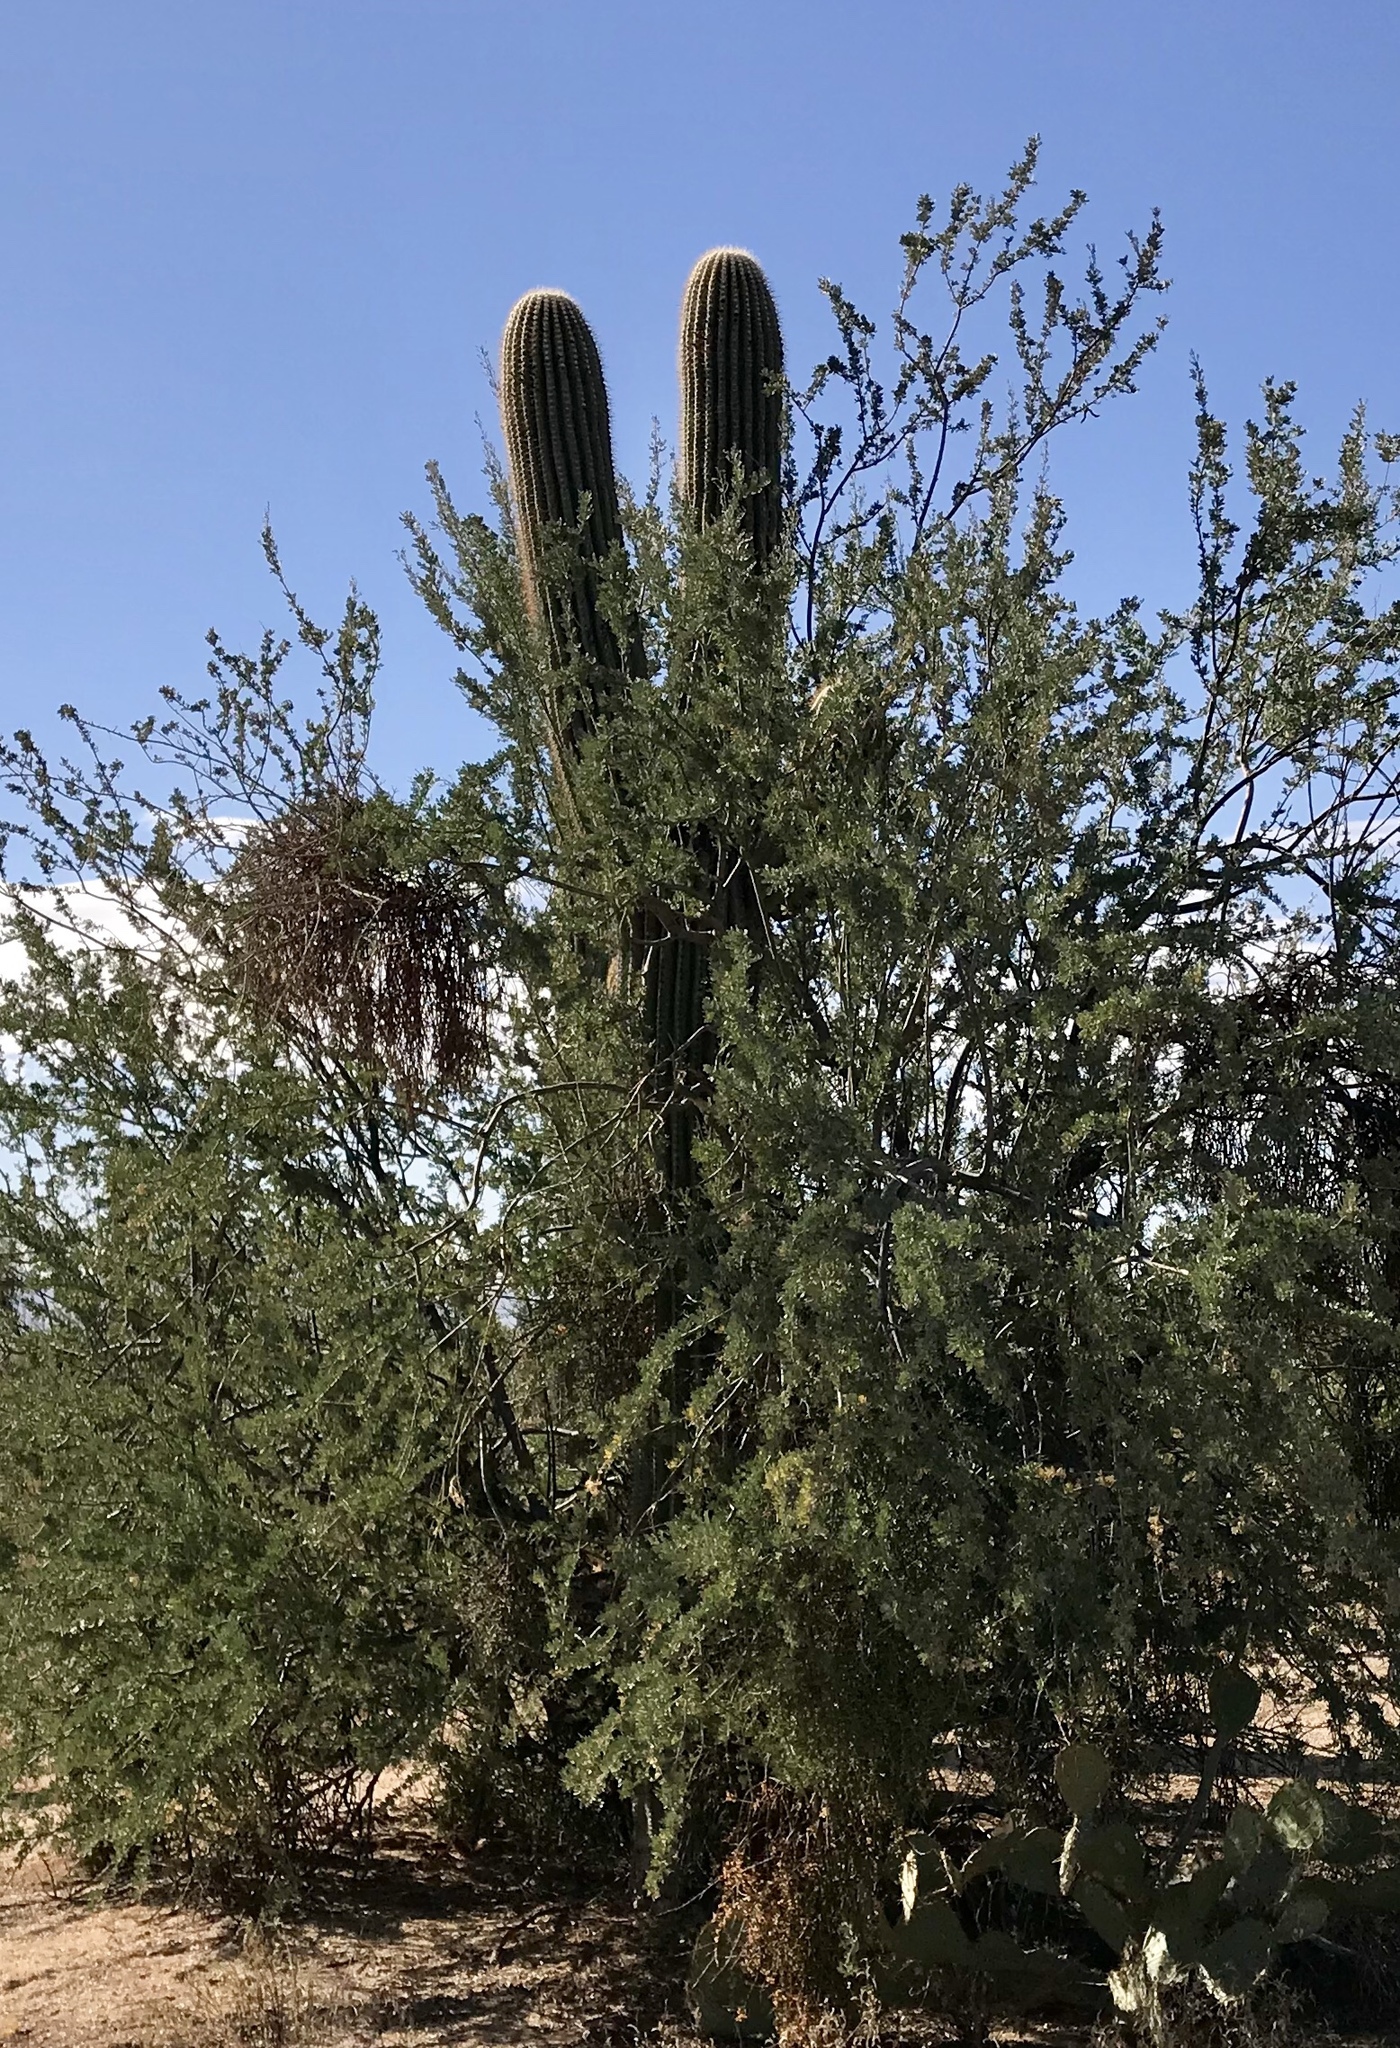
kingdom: Plantae
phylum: Tracheophyta
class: Magnoliopsida
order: Caryophyllales
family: Cactaceae
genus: Carnegiea
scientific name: Carnegiea gigantea
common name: Saguaro
